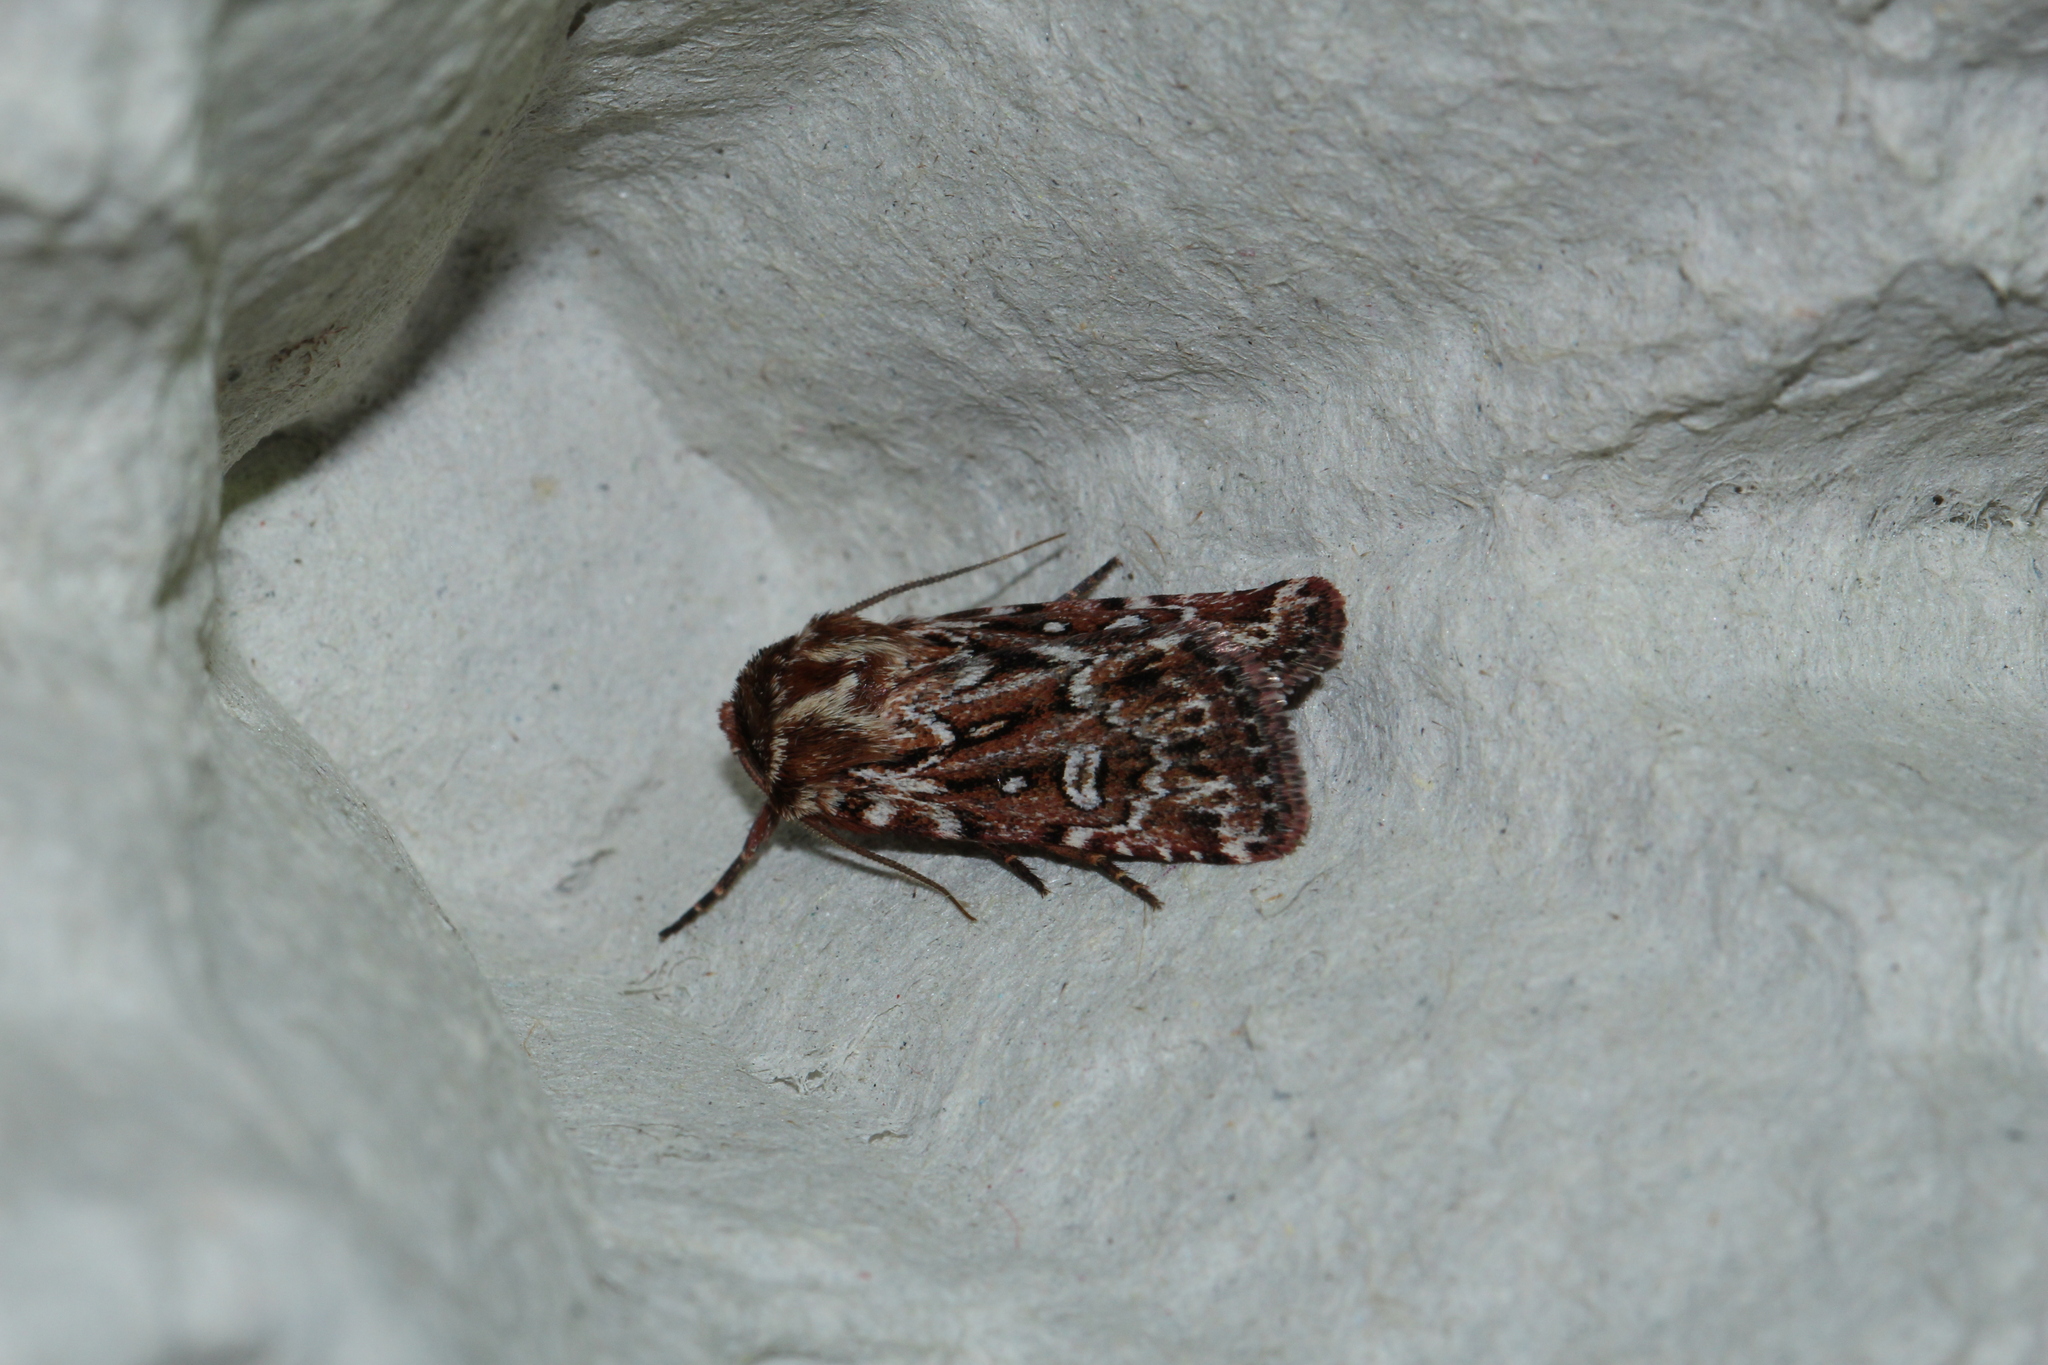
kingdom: Animalia
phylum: Arthropoda
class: Insecta
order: Lepidoptera
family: Noctuidae
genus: Lycophotia
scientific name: Lycophotia porphyrea
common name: True lover's knot
